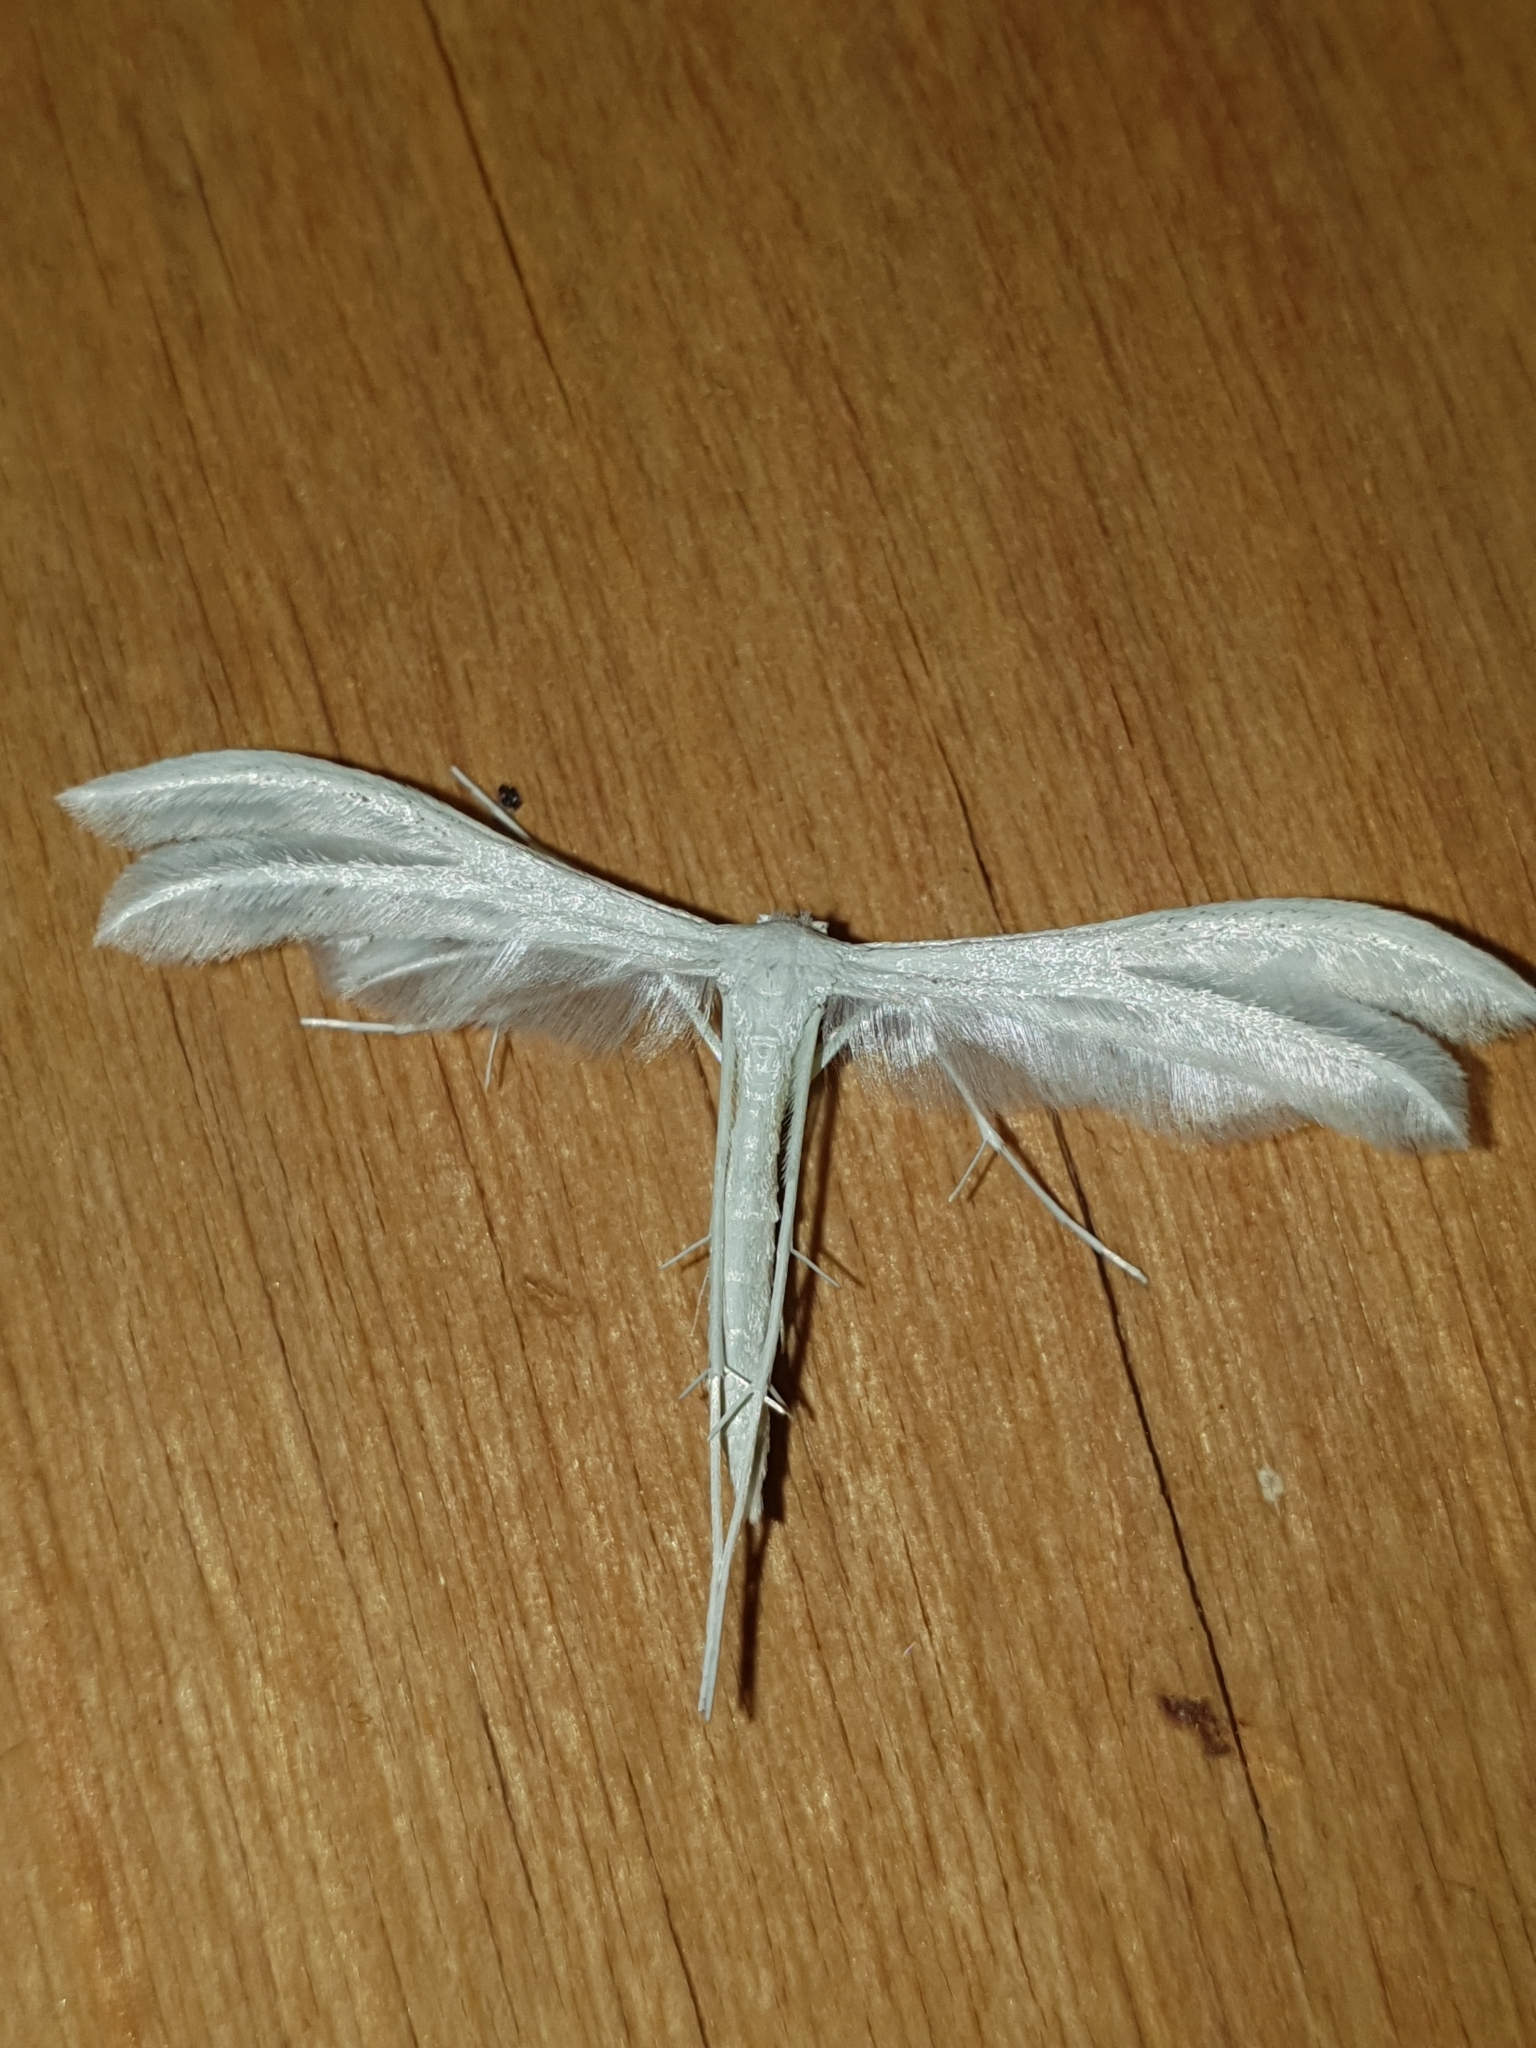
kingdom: Animalia
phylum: Arthropoda
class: Insecta
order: Lepidoptera
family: Pterophoridae
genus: Pterophorus
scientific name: Pterophorus pentadactyla
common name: White plume moth
